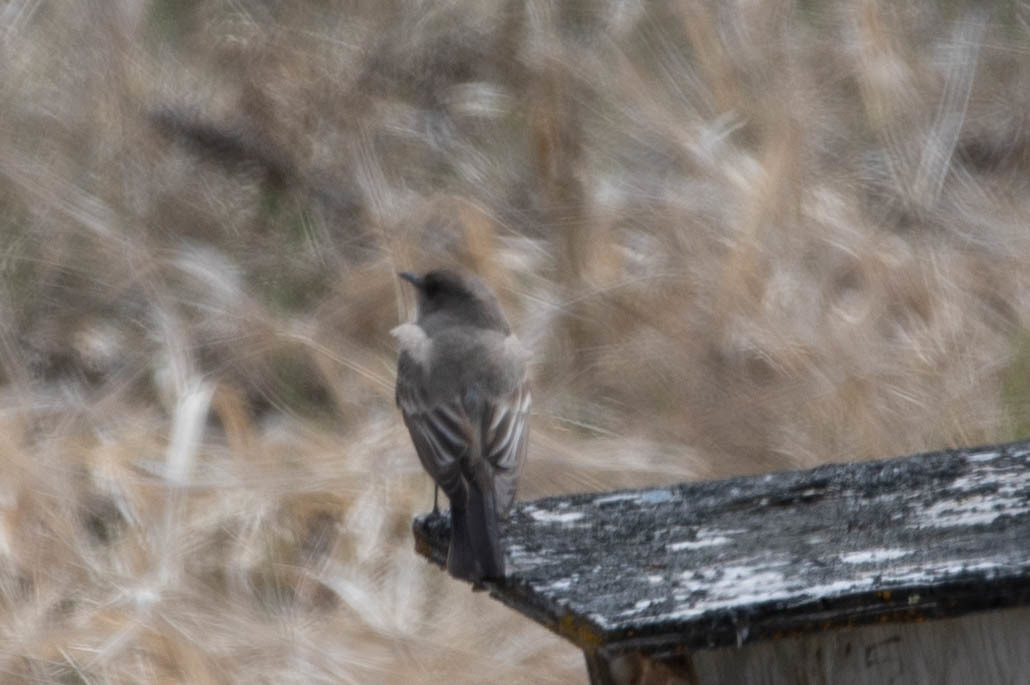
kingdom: Animalia
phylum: Chordata
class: Aves
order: Passeriformes
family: Tyrannidae
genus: Sayornis
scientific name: Sayornis saya
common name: Say's phoebe
